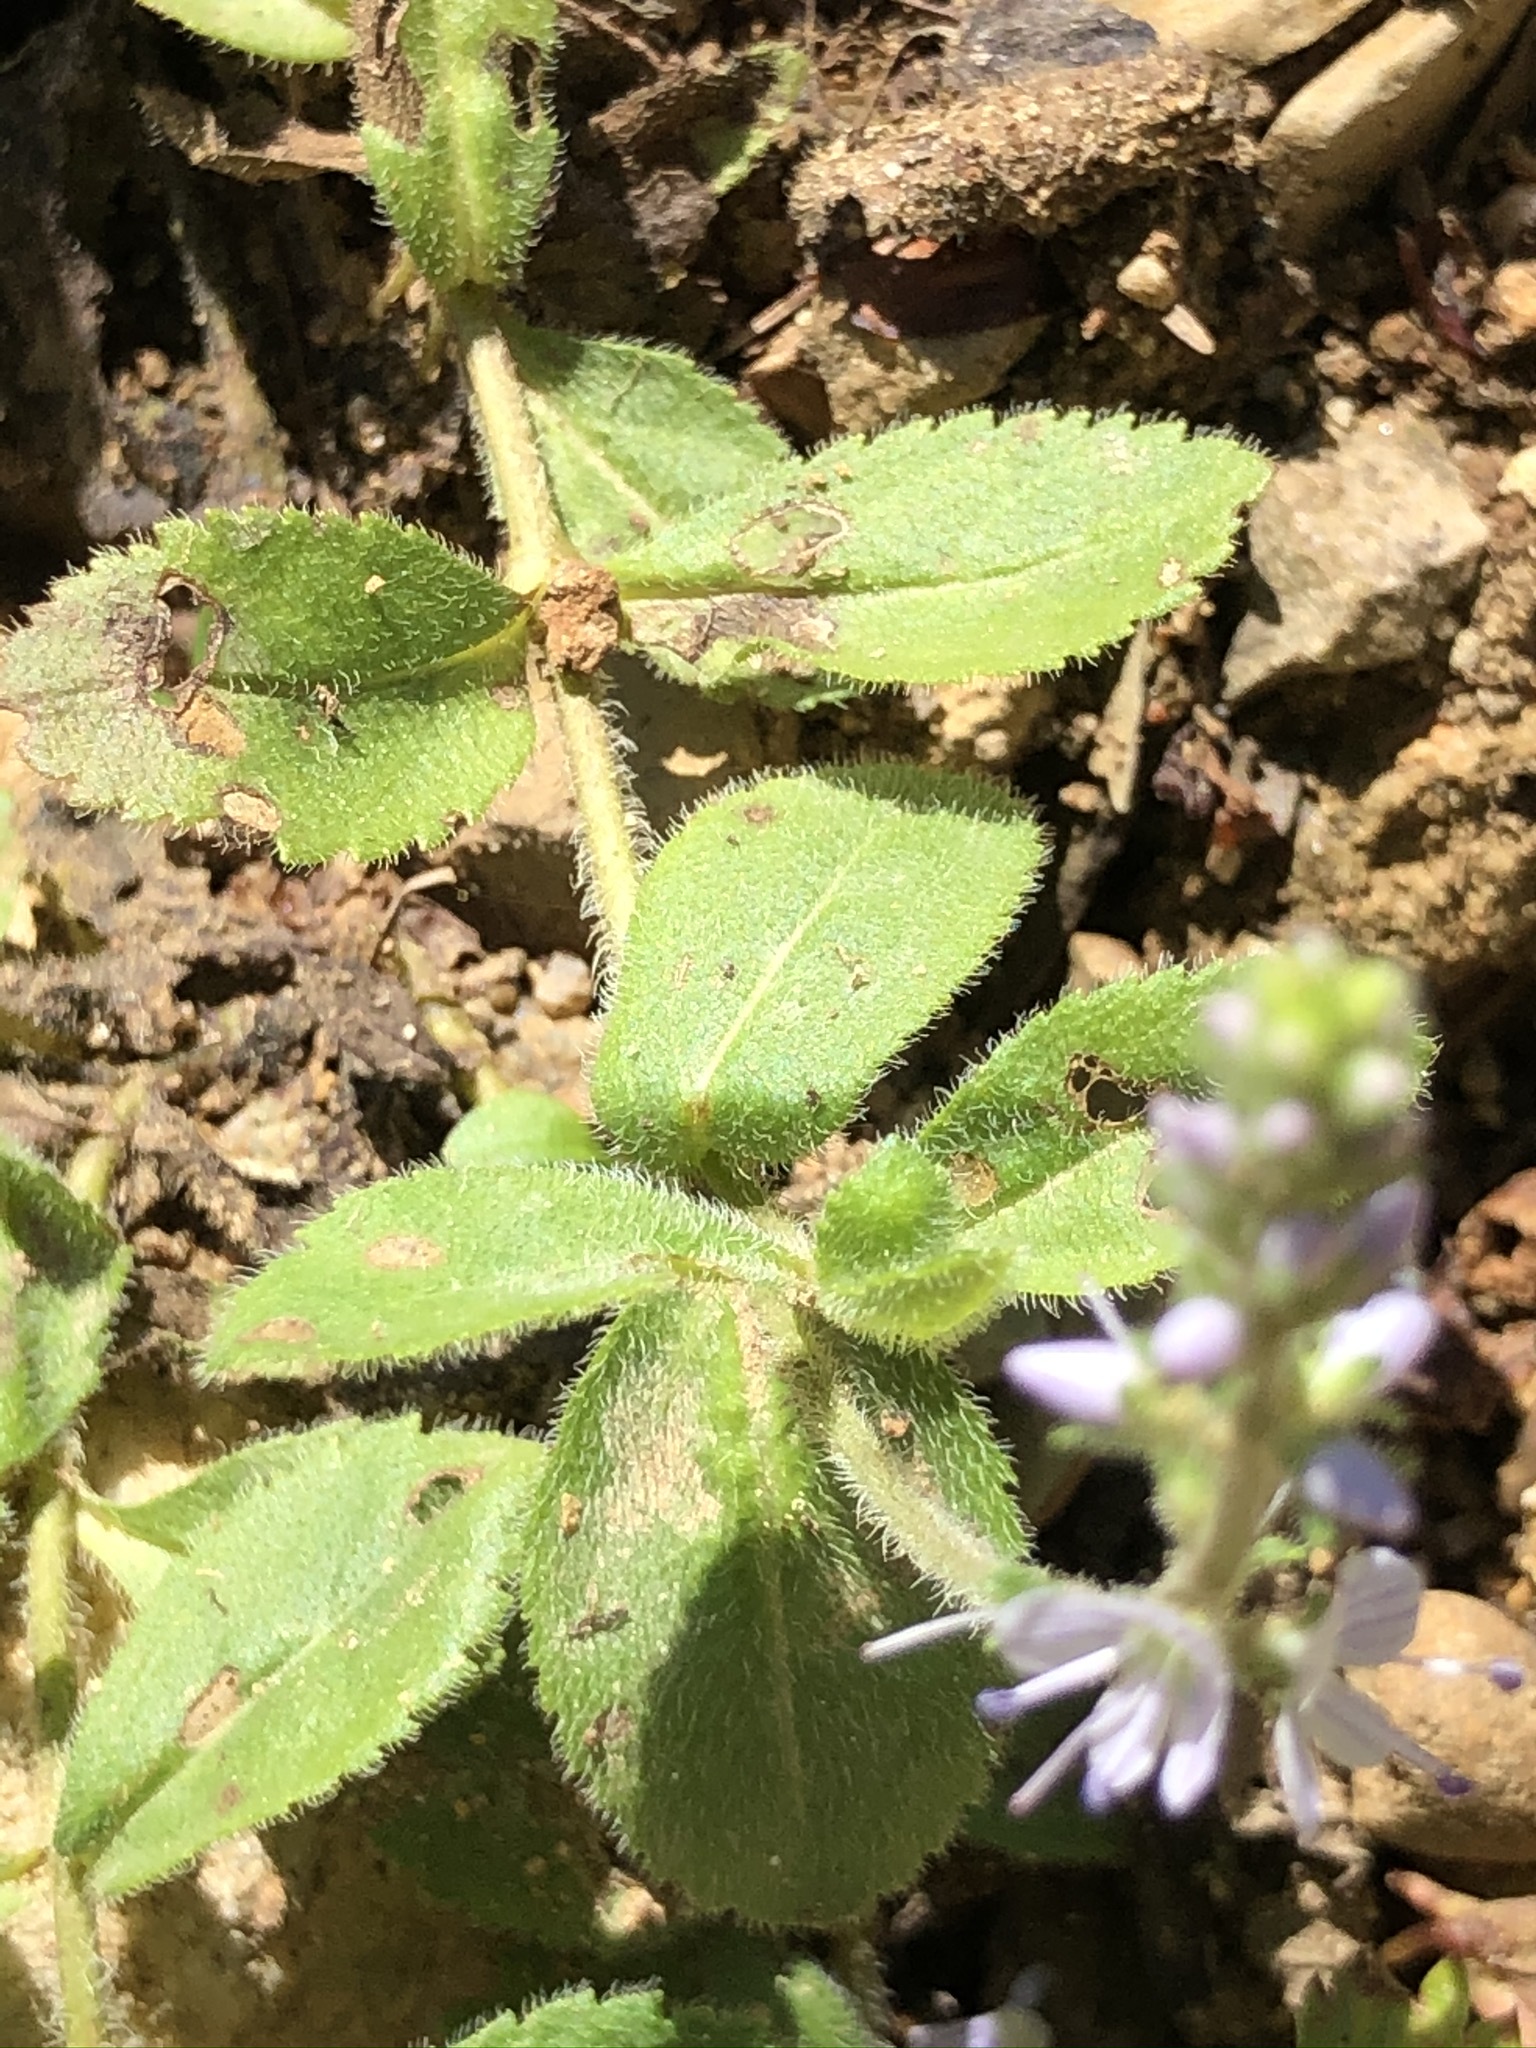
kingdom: Plantae
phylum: Tracheophyta
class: Magnoliopsida
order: Lamiales
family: Plantaginaceae
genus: Veronica
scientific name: Veronica officinalis
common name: Common speedwell
